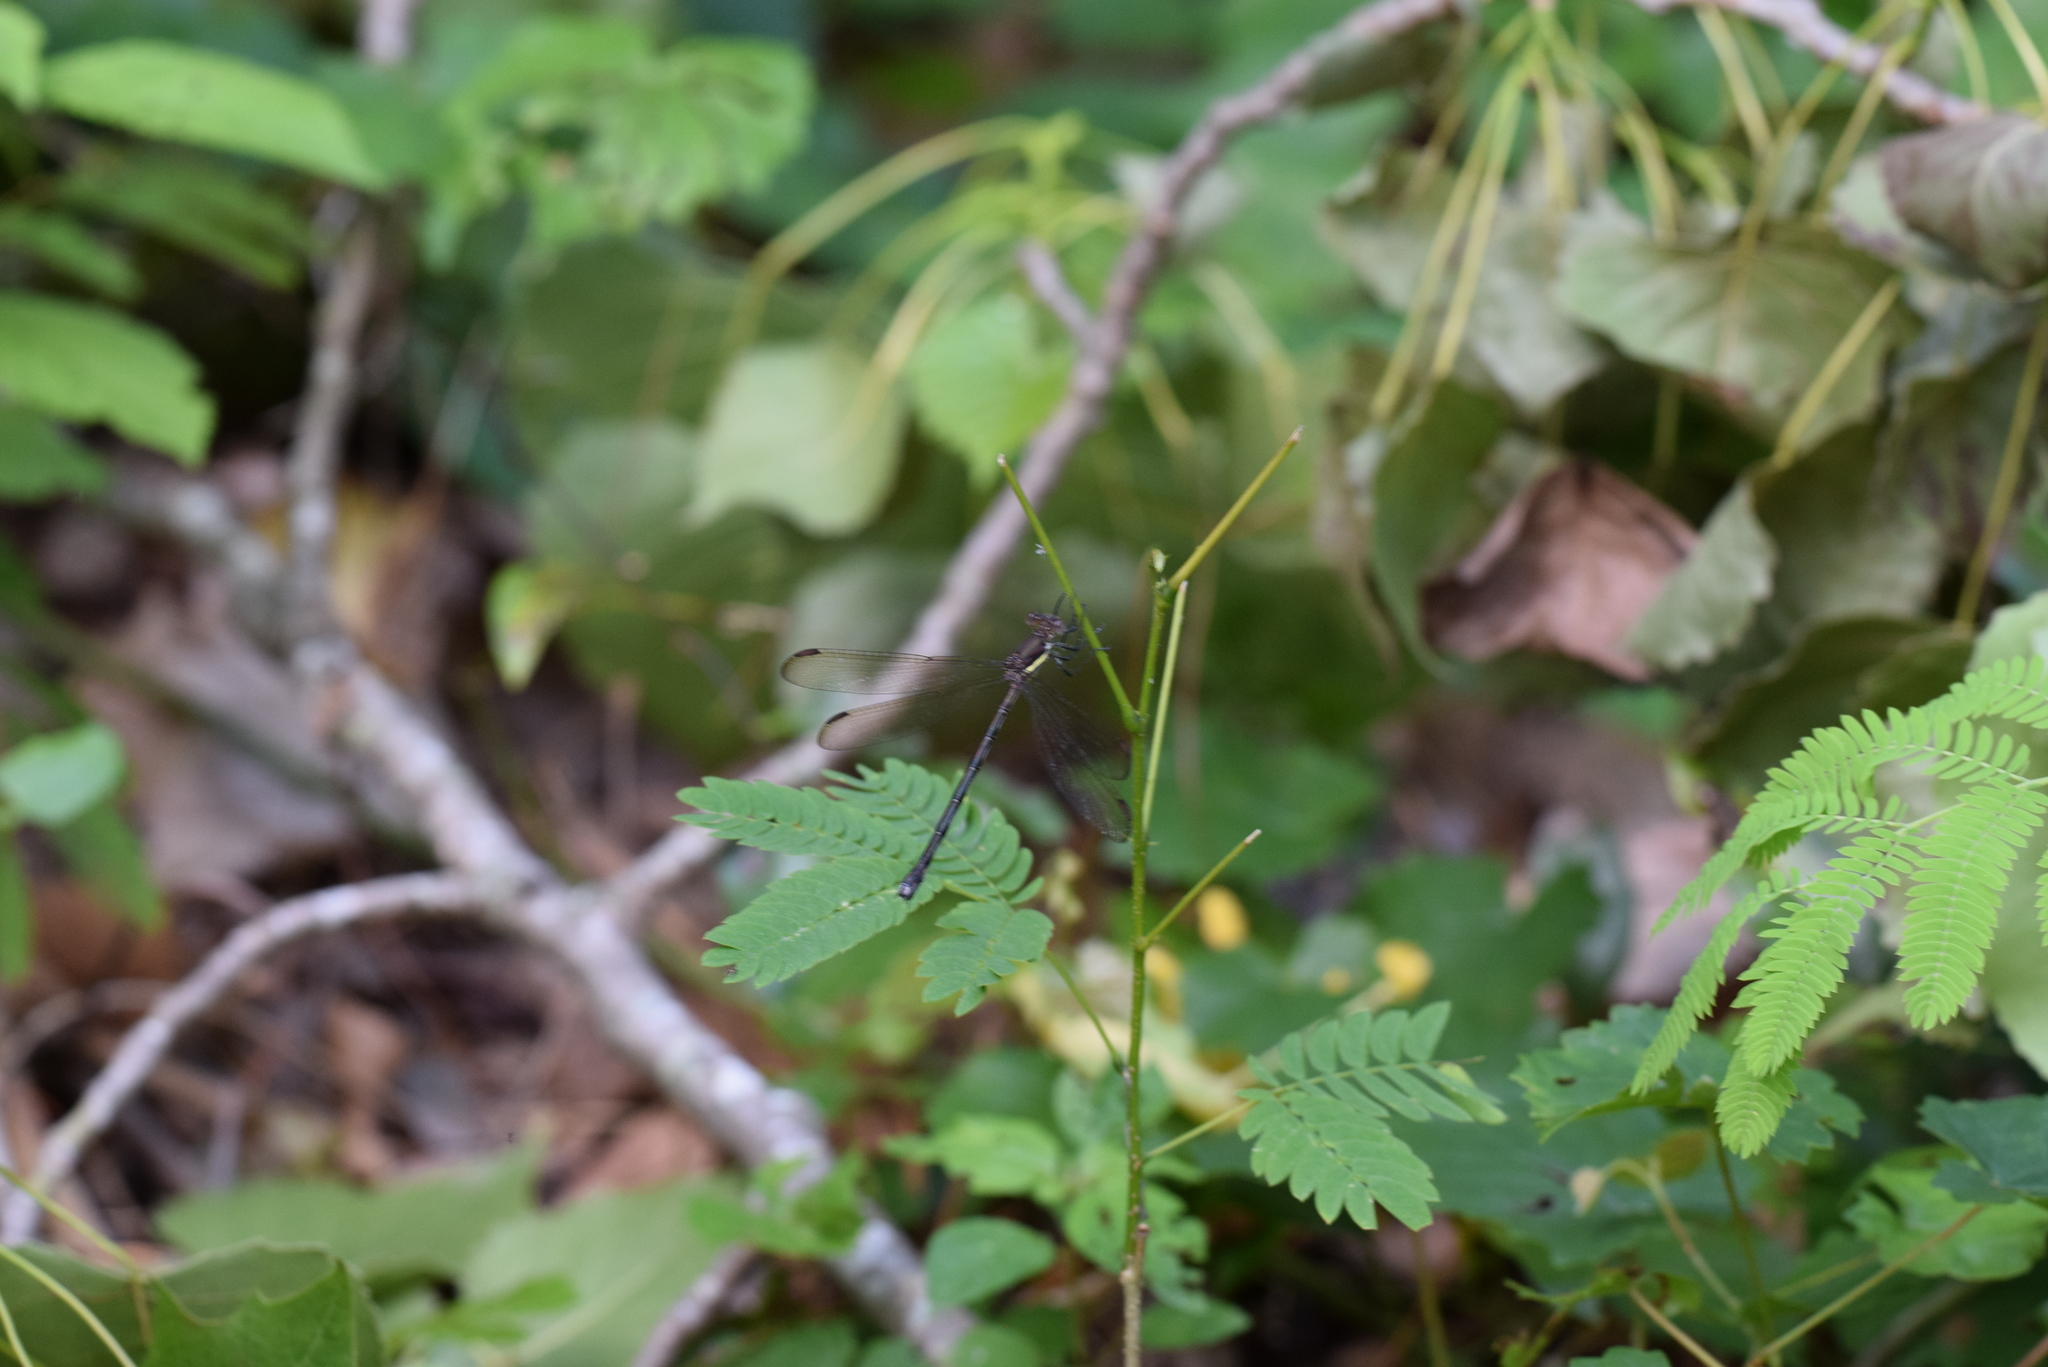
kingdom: Animalia
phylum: Arthropoda
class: Insecta
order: Odonata
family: Lestidae
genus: Archilestes
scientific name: Archilestes grandis
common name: Great spreadwing
